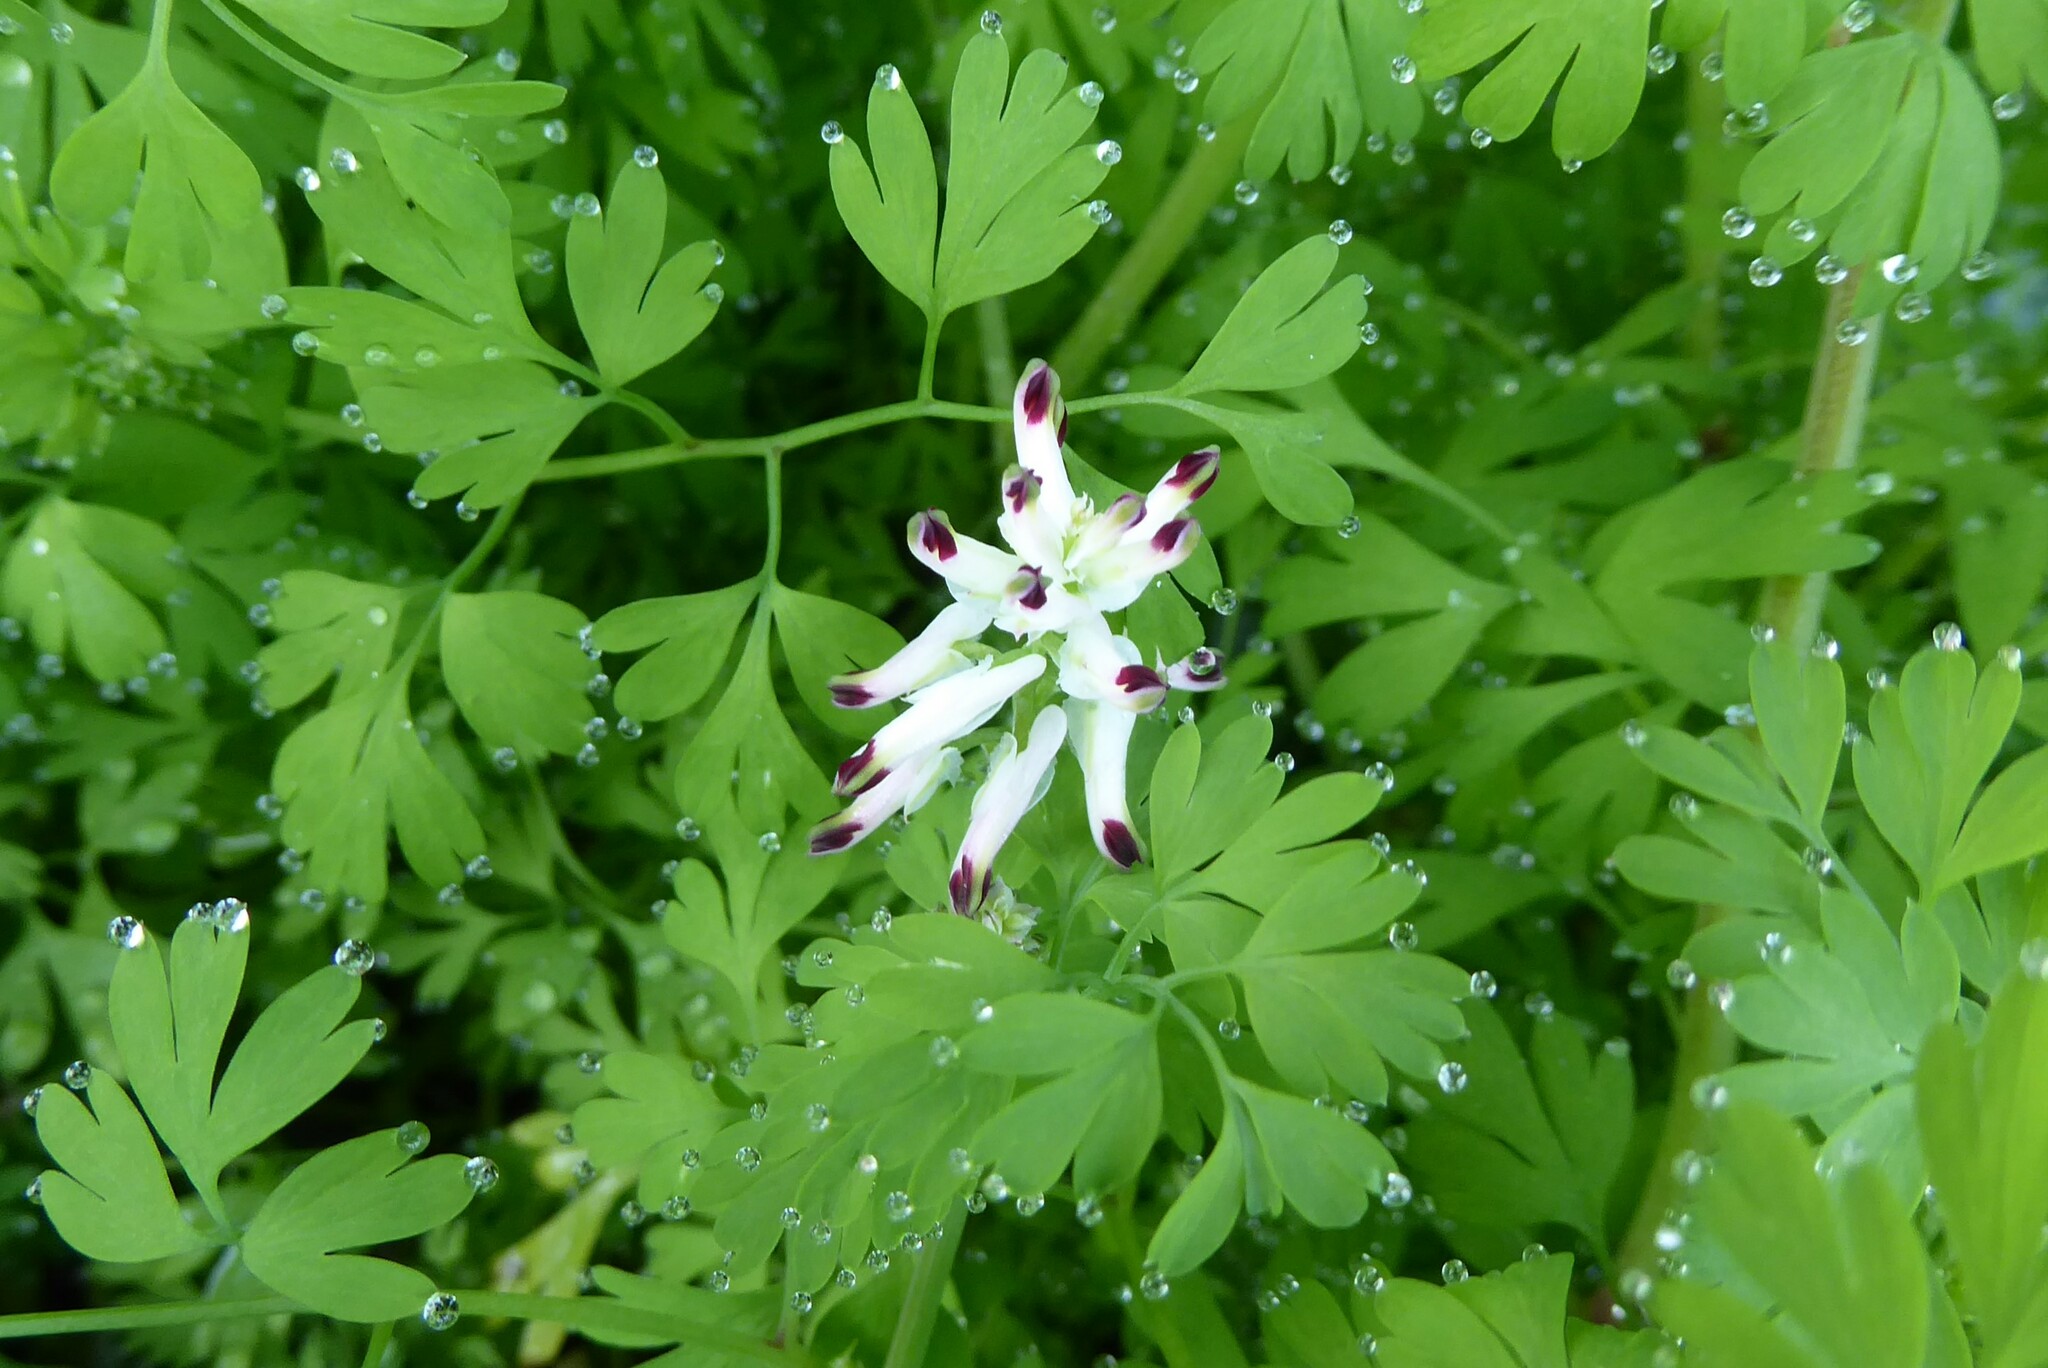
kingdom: Plantae
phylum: Tracheophyta
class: Magnoliopsida
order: Ranunculales
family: Papaveraceae
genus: Fumaria
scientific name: Fumaria capreolata
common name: White ramping-fumitory
